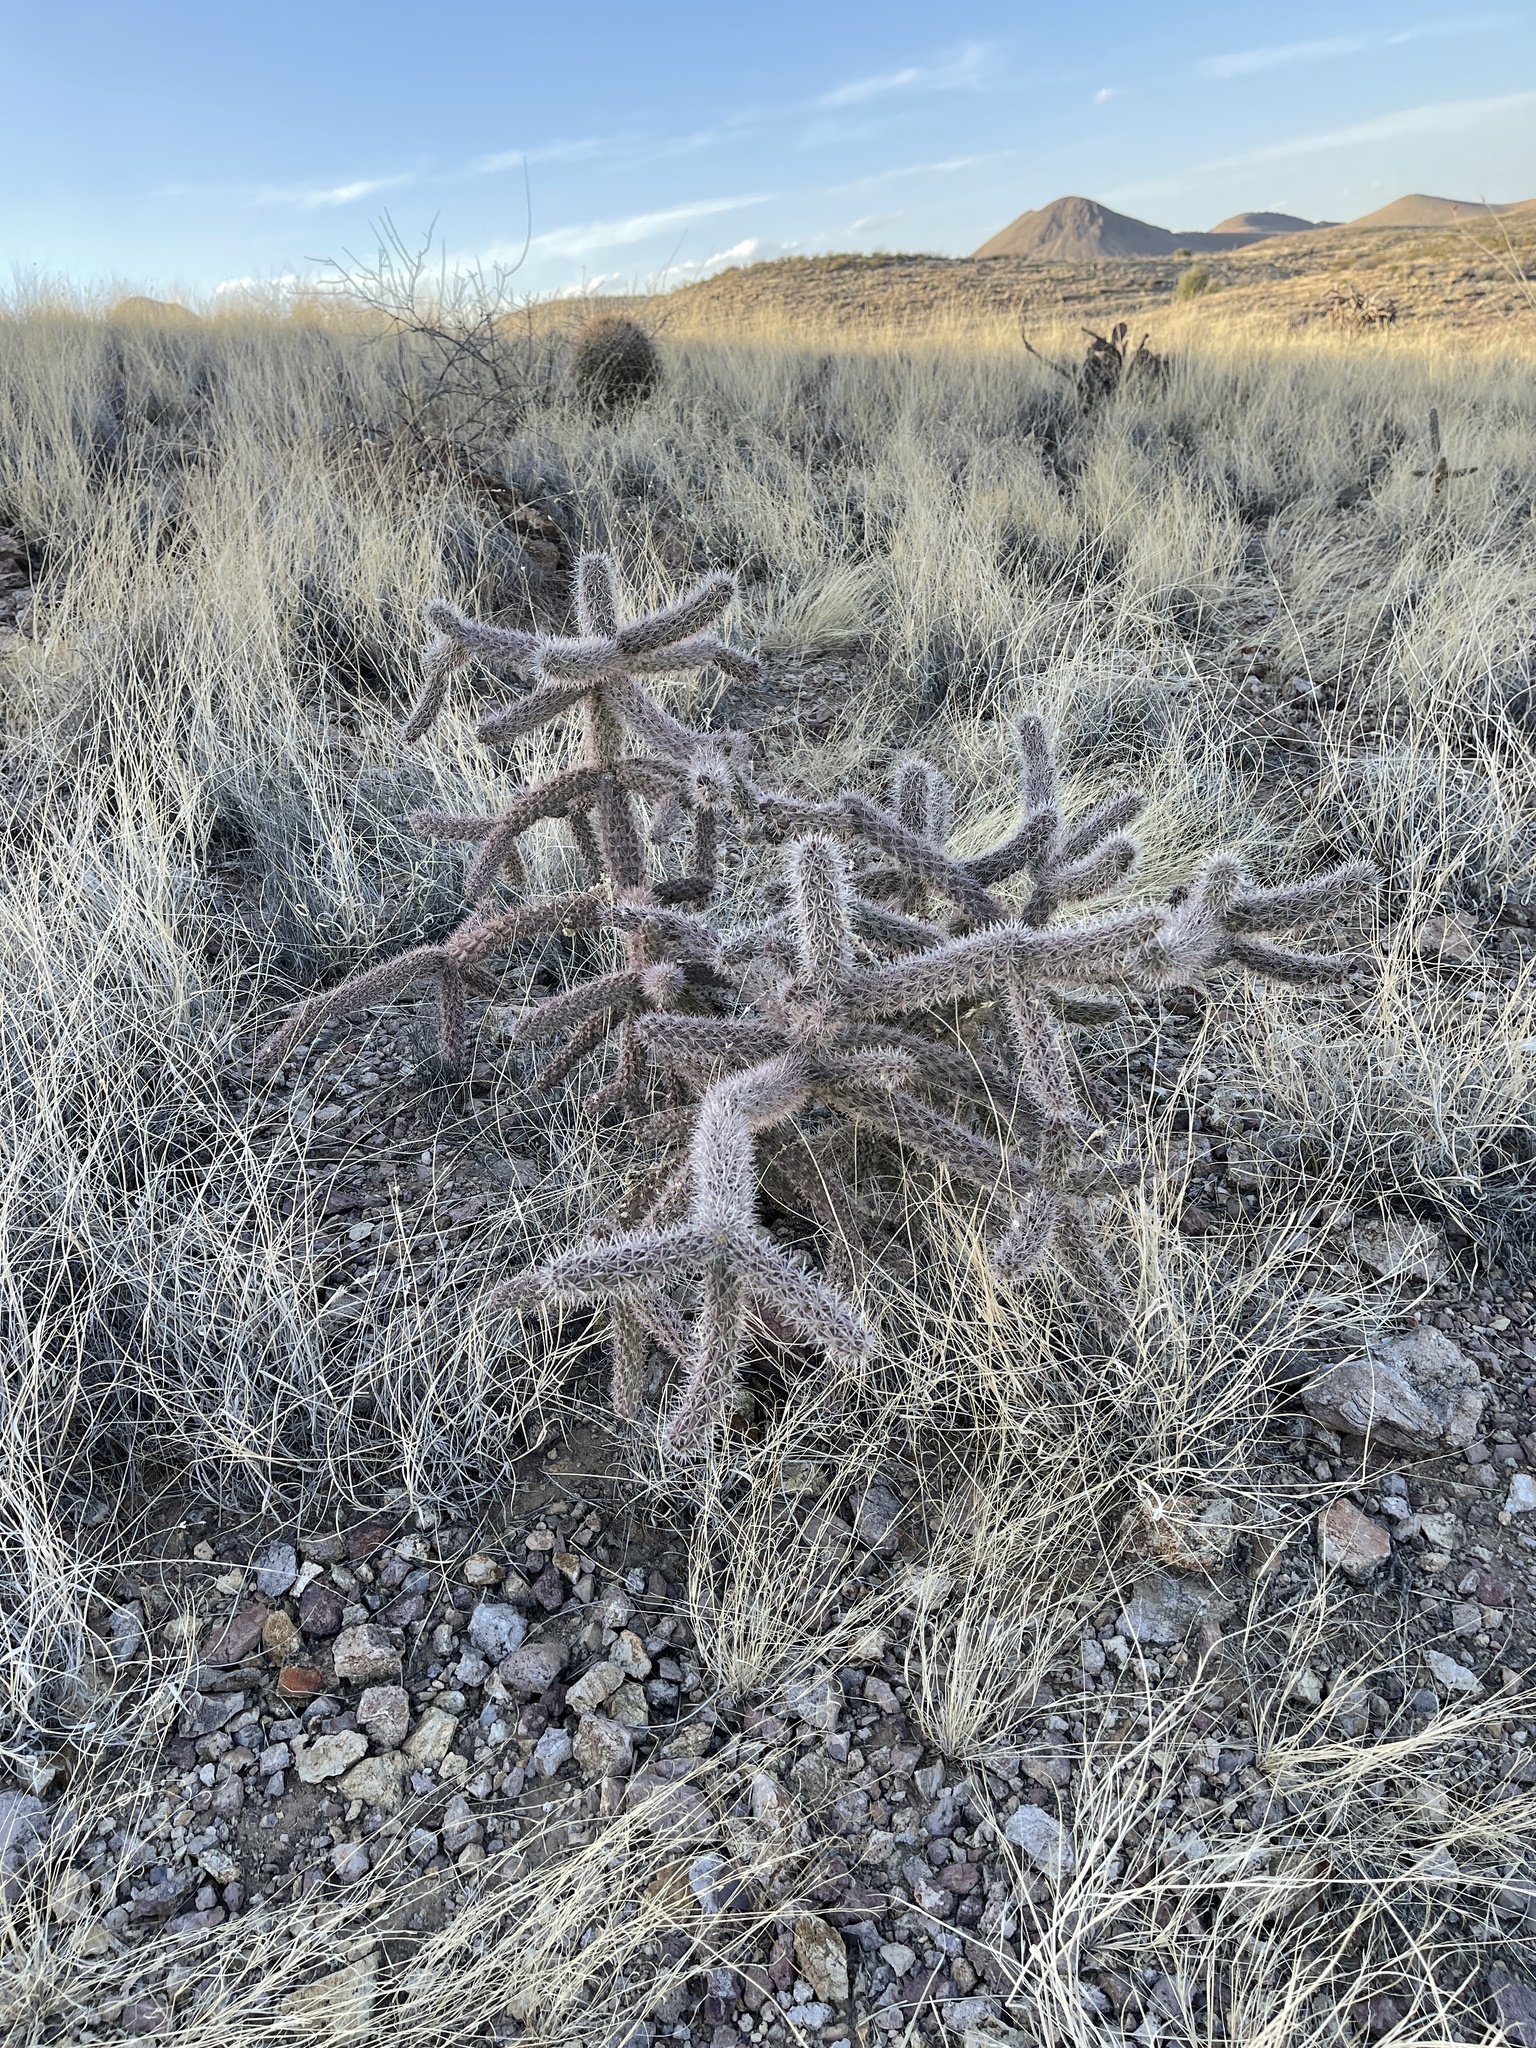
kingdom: Plantae
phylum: Tracheophyta
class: Magnoliopsida
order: Caryophyllales
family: Cactaceae
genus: Cylindropuntia
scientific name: Cylindropuntia imbricata
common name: Candelabrum cactus
